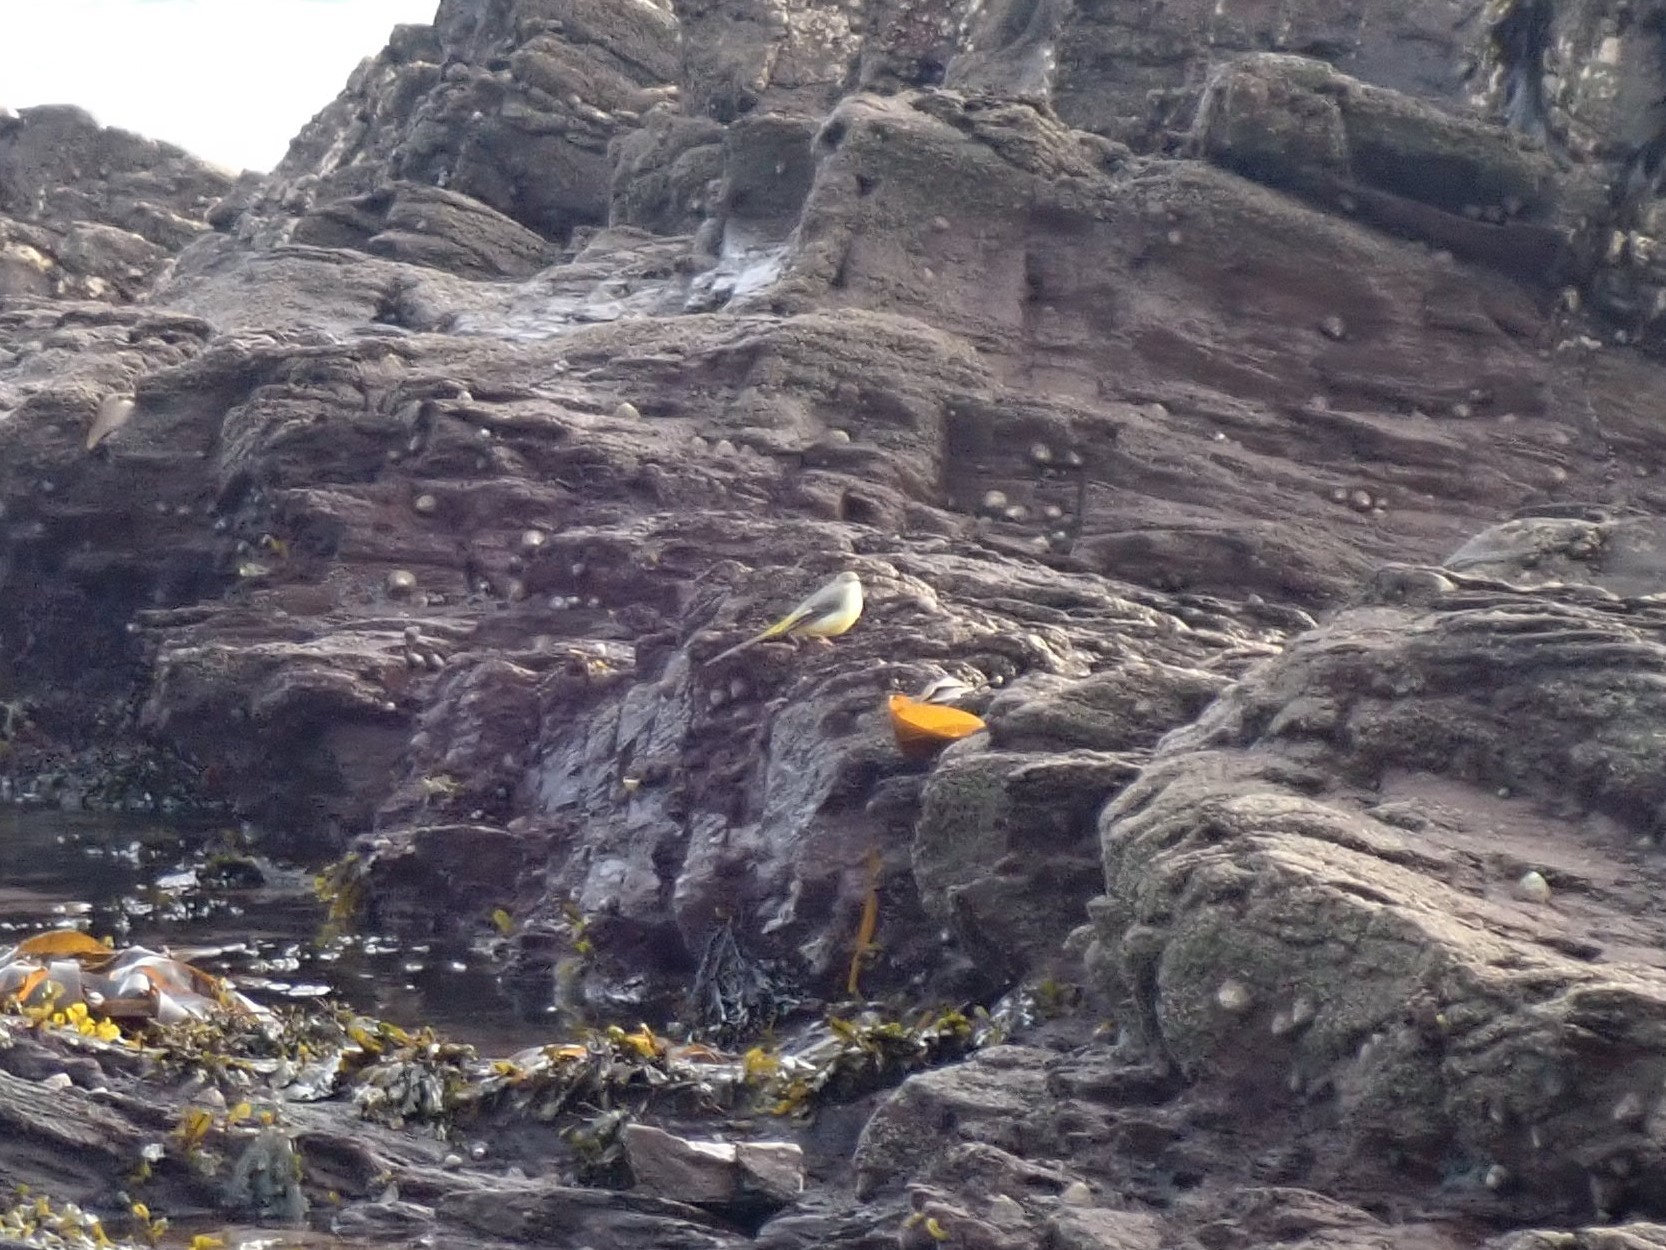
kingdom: Animalia
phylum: Chordata
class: Aves
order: Passeriformes
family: Motacillidae
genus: Motacilla
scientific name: Motacilla cinerea
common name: Grey wagtail
